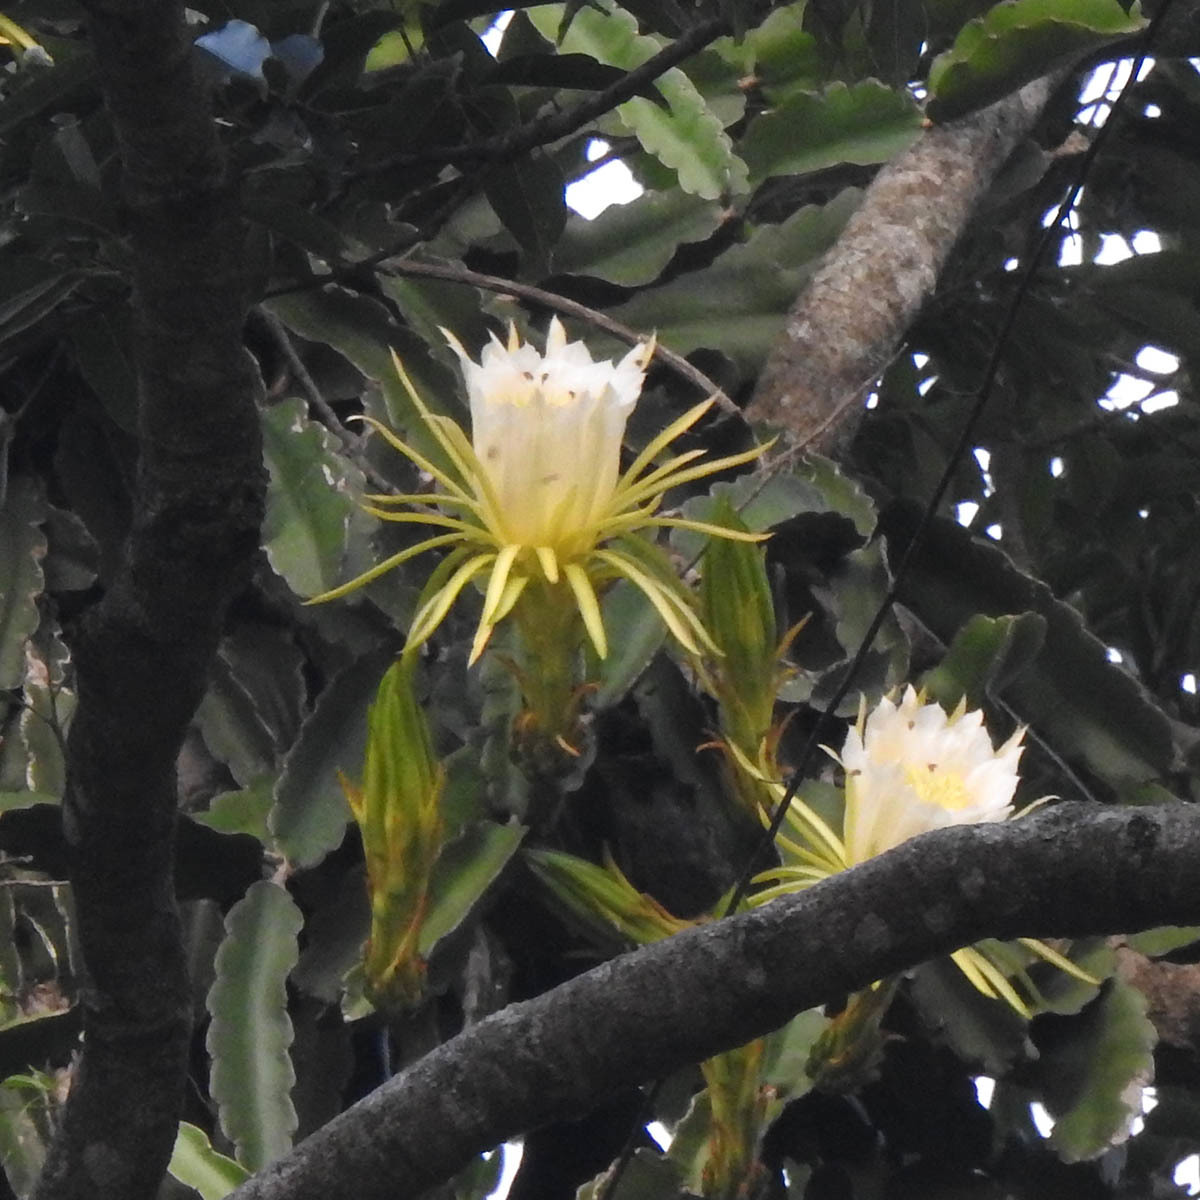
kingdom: Plantae
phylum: Tracheophyta
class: Magnoliopsida
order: Caryophyllales
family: Cactaceae
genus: Selenicereus
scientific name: Selenicereus undatus
